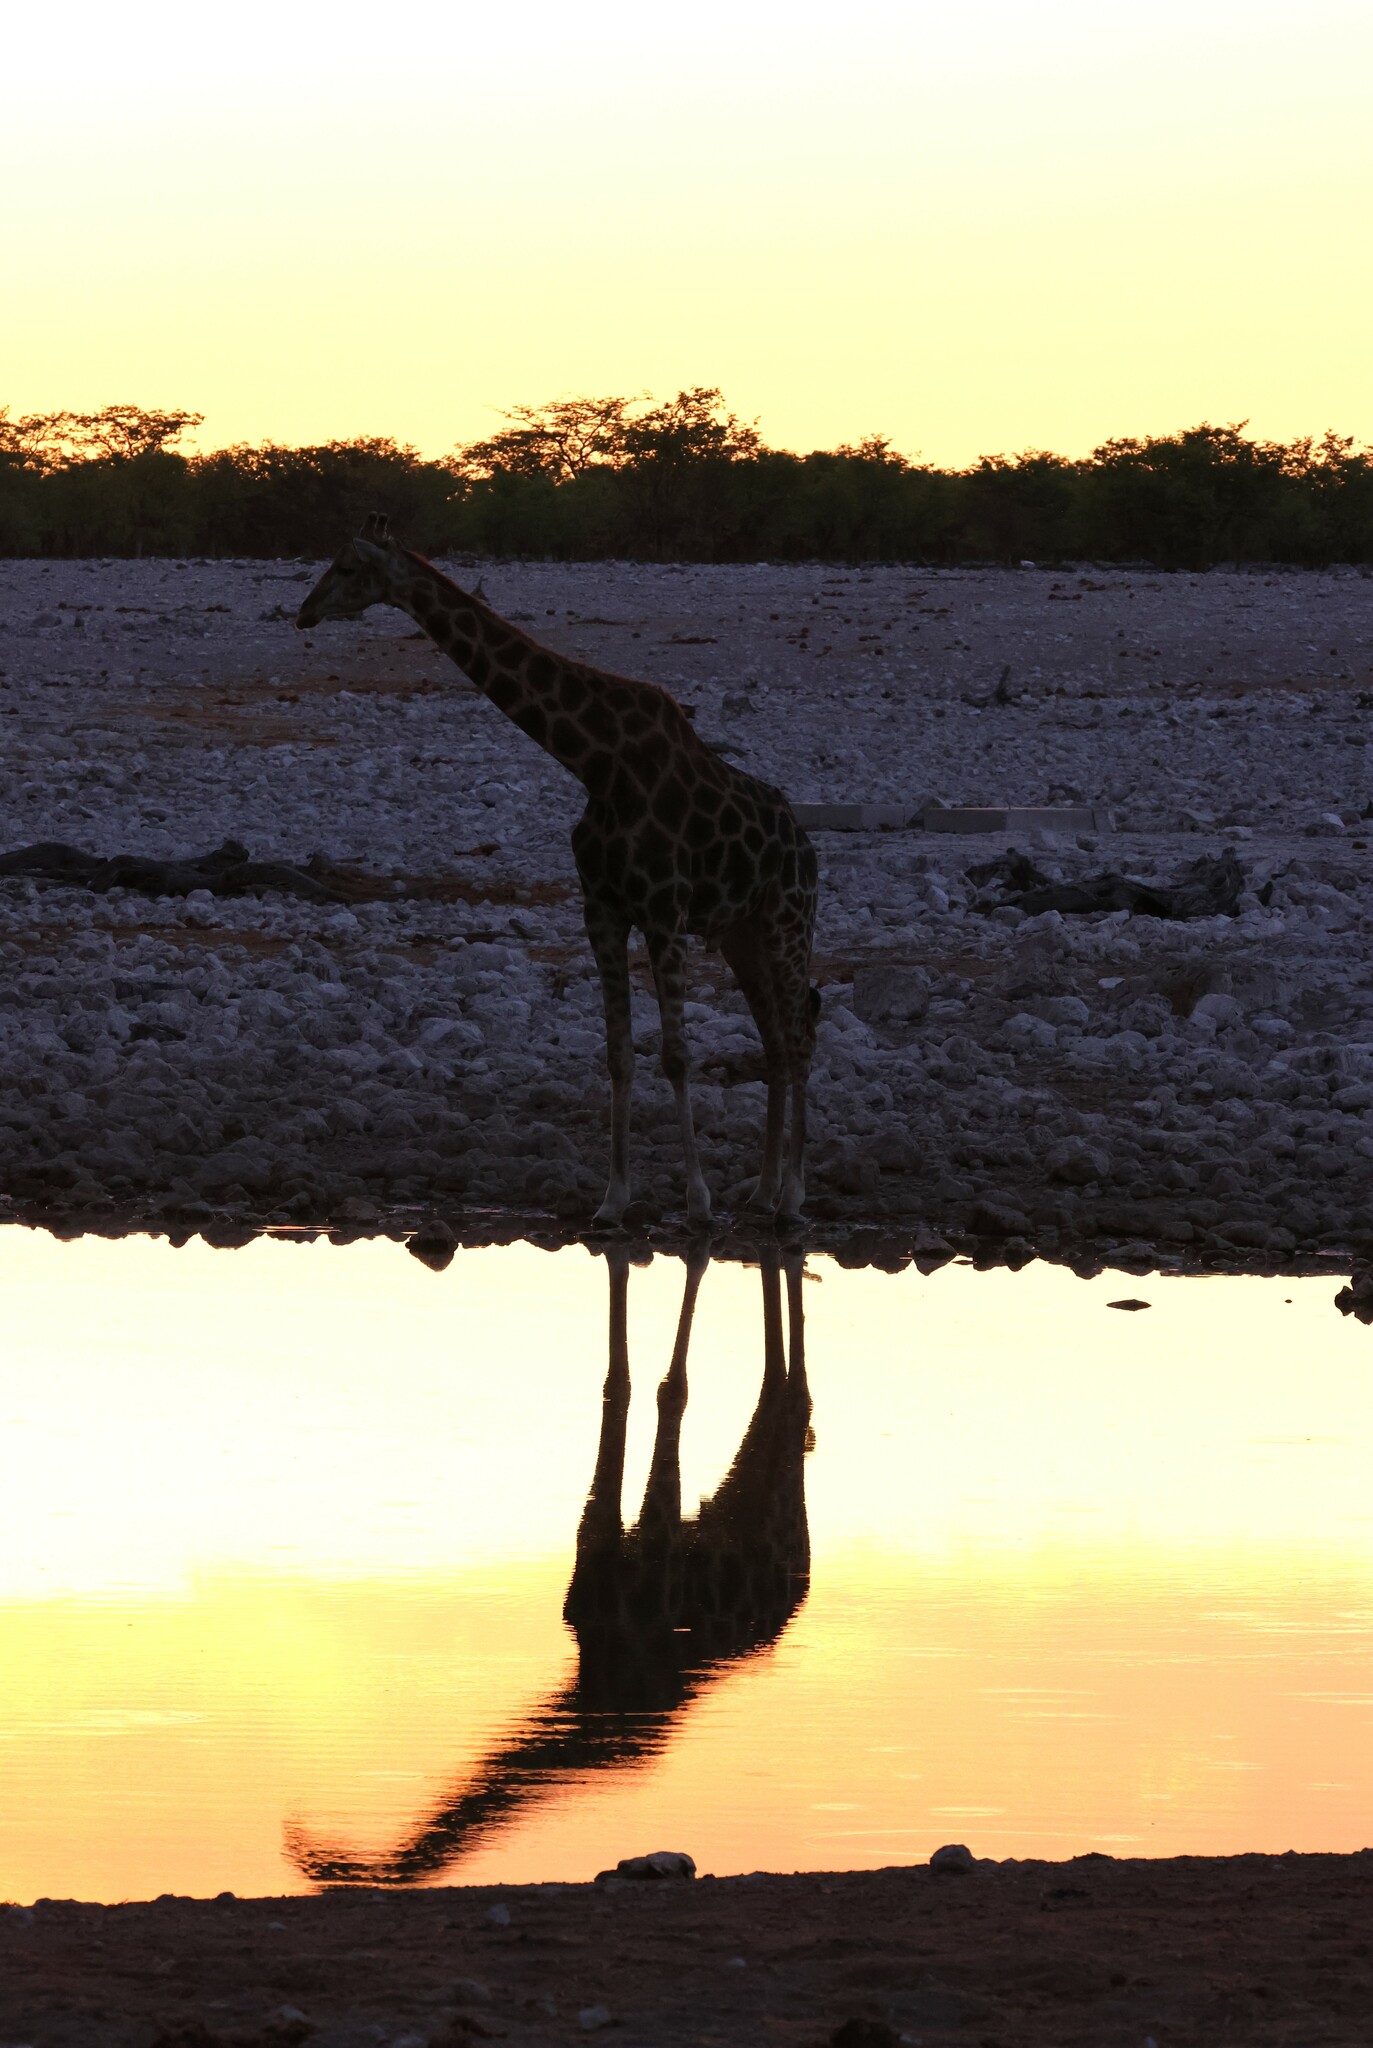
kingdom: Animalia
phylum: Chordata
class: Mammalia
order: Artiodactyla
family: Giraffidae
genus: Giraffa
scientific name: Giraffa giraffa
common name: Southern giraffe
